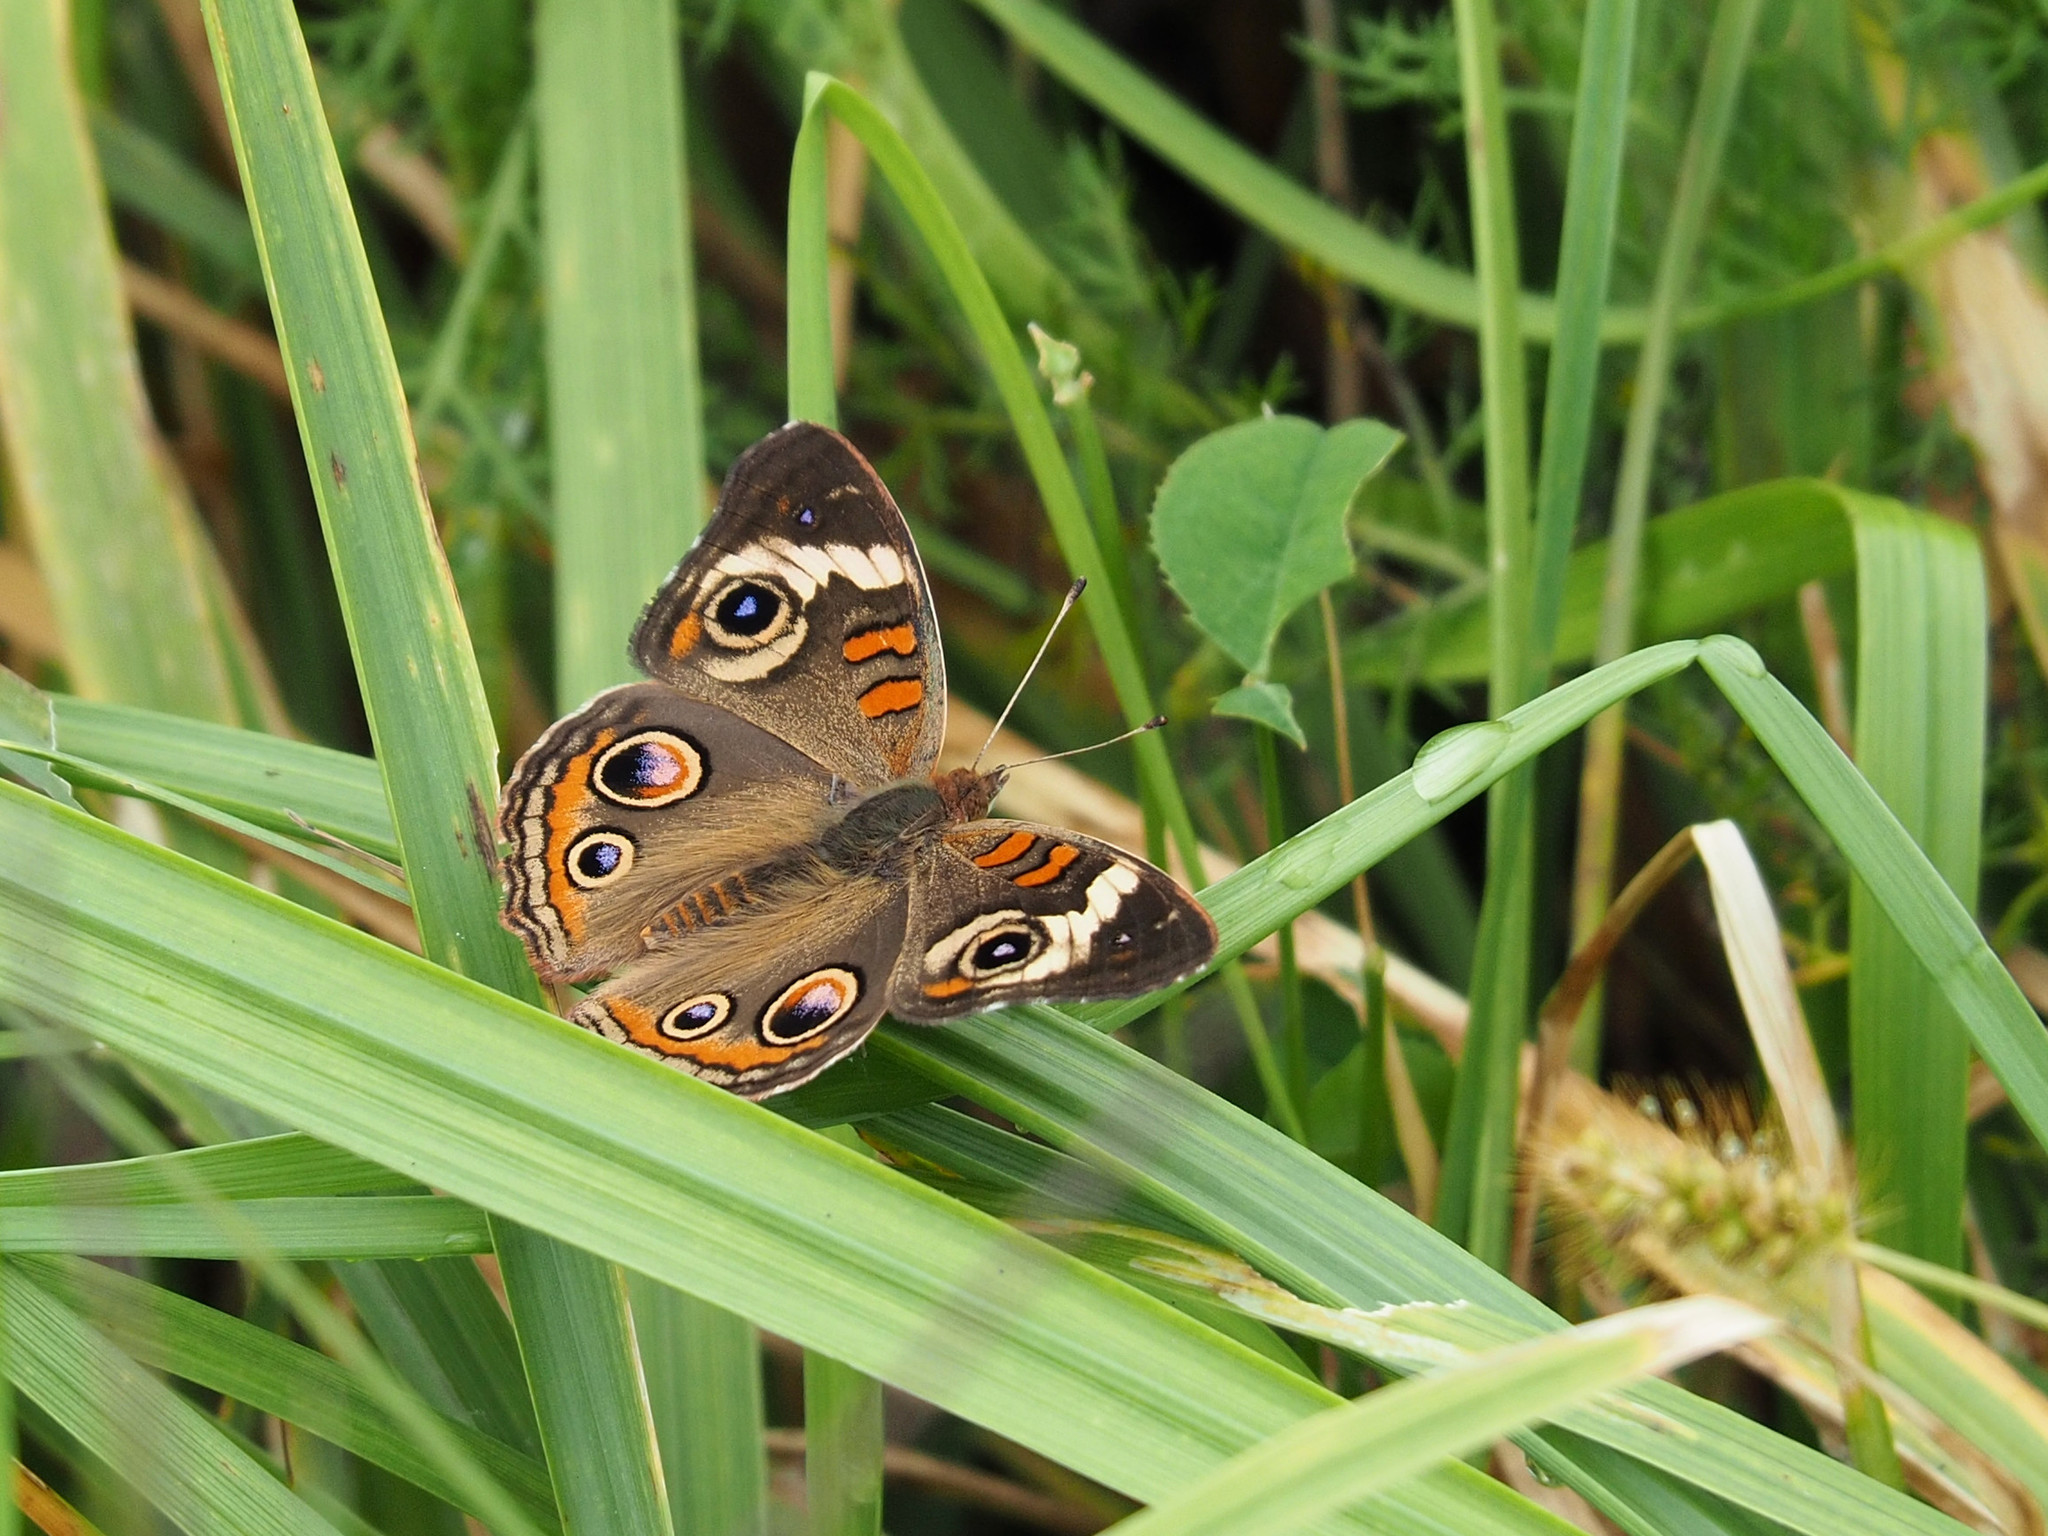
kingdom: Animalia
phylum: Arthropoda
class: Insecta
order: Lepidoptera
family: Nymphalidae
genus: Junonia
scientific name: Junonia coenia
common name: Common buckeye
